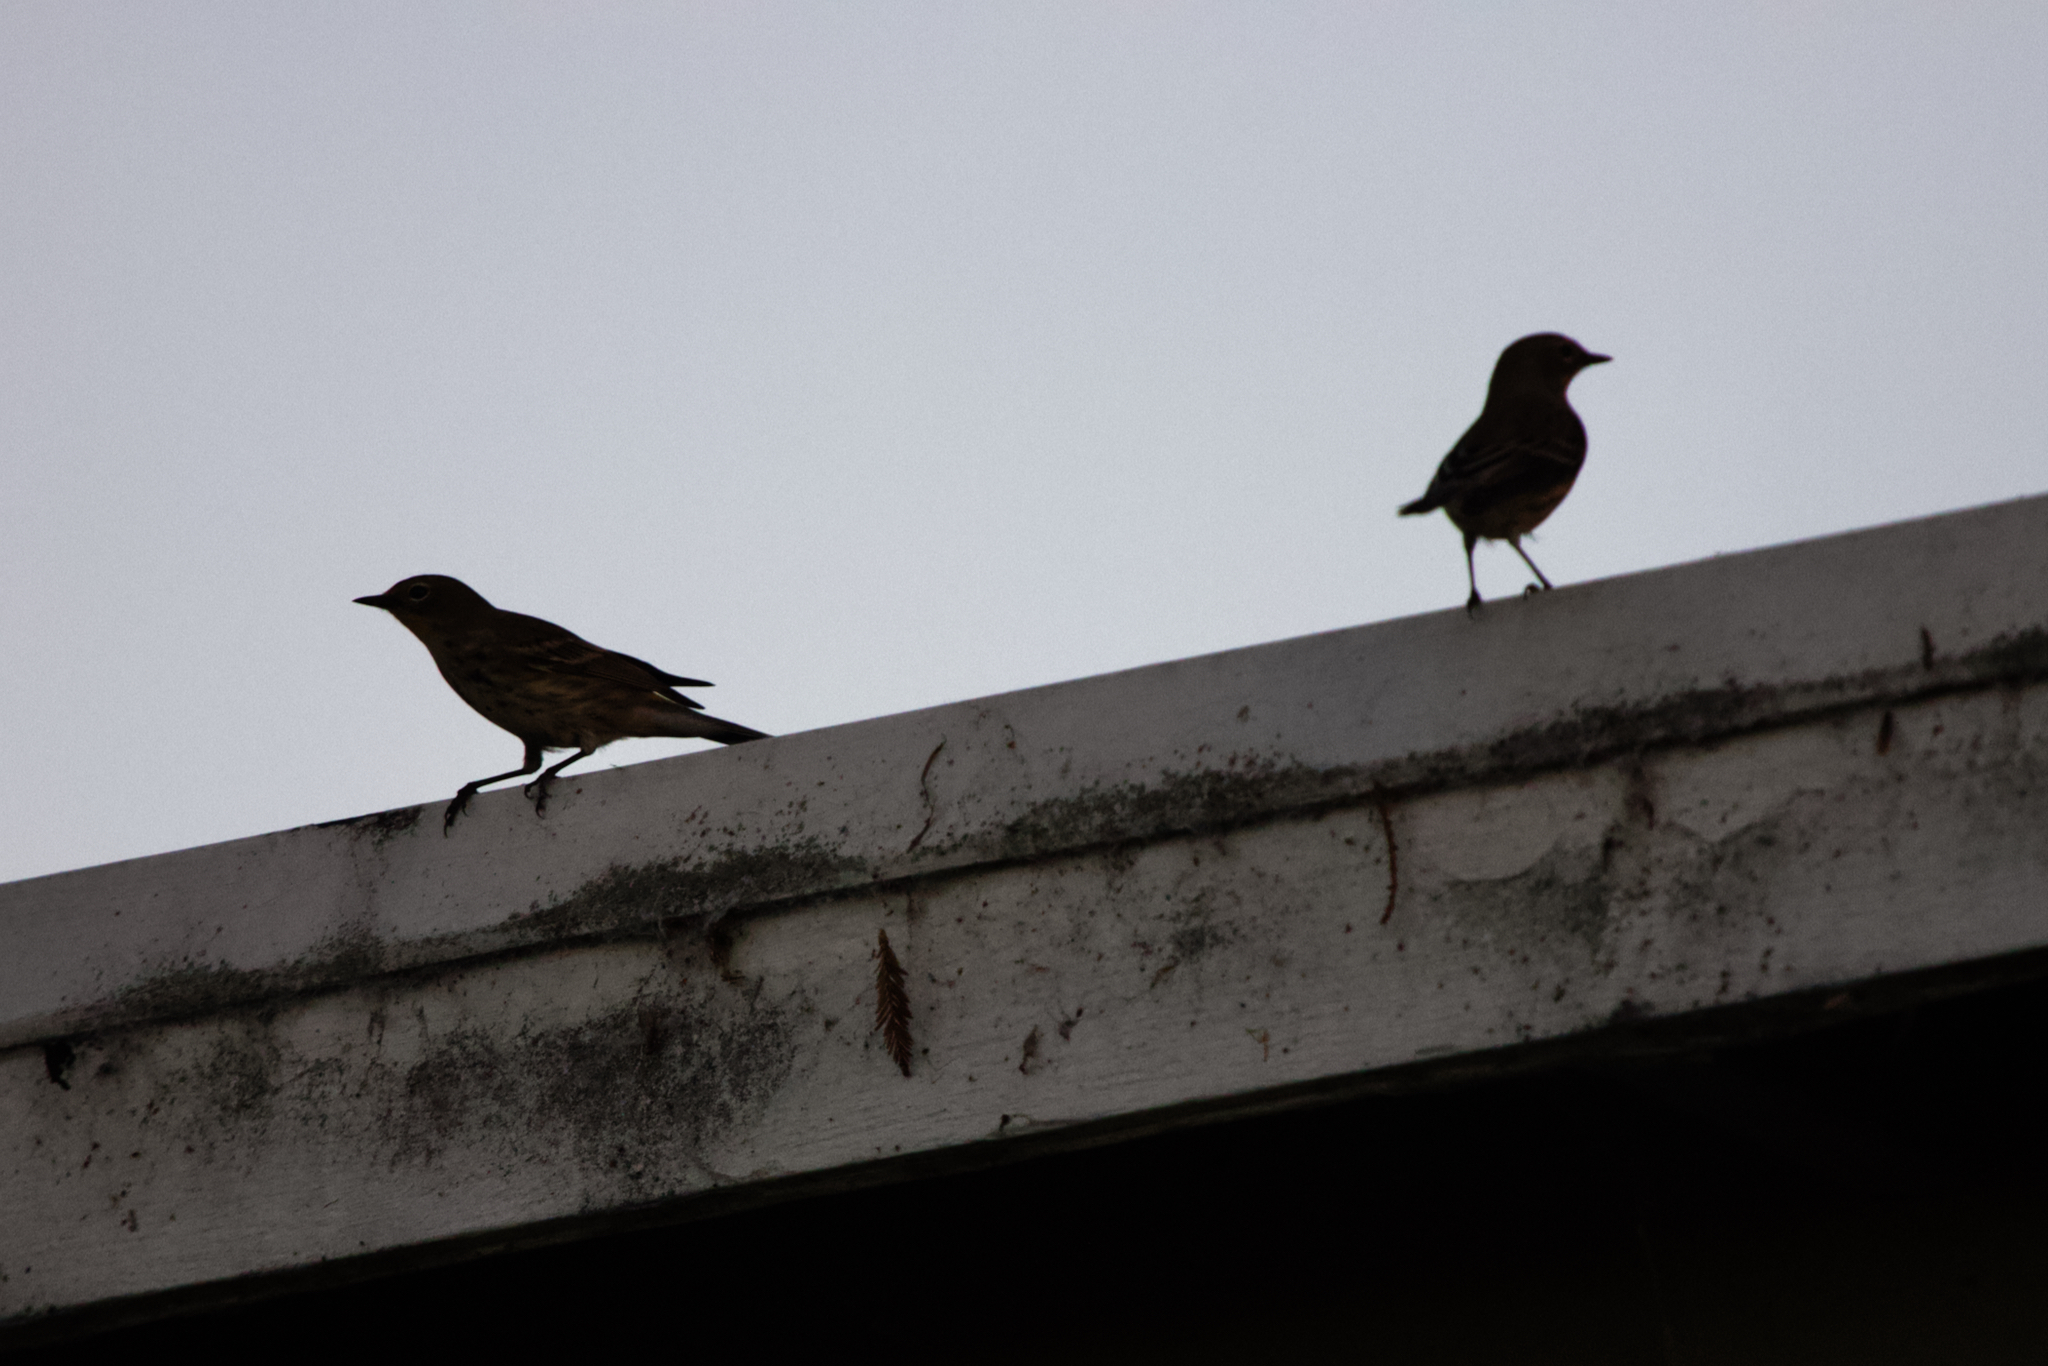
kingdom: Animalia
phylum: Chordata
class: Aves
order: Passeriformes
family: Parulidae
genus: Setophaga
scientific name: Setophaga coronata
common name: Myrtle warbler
